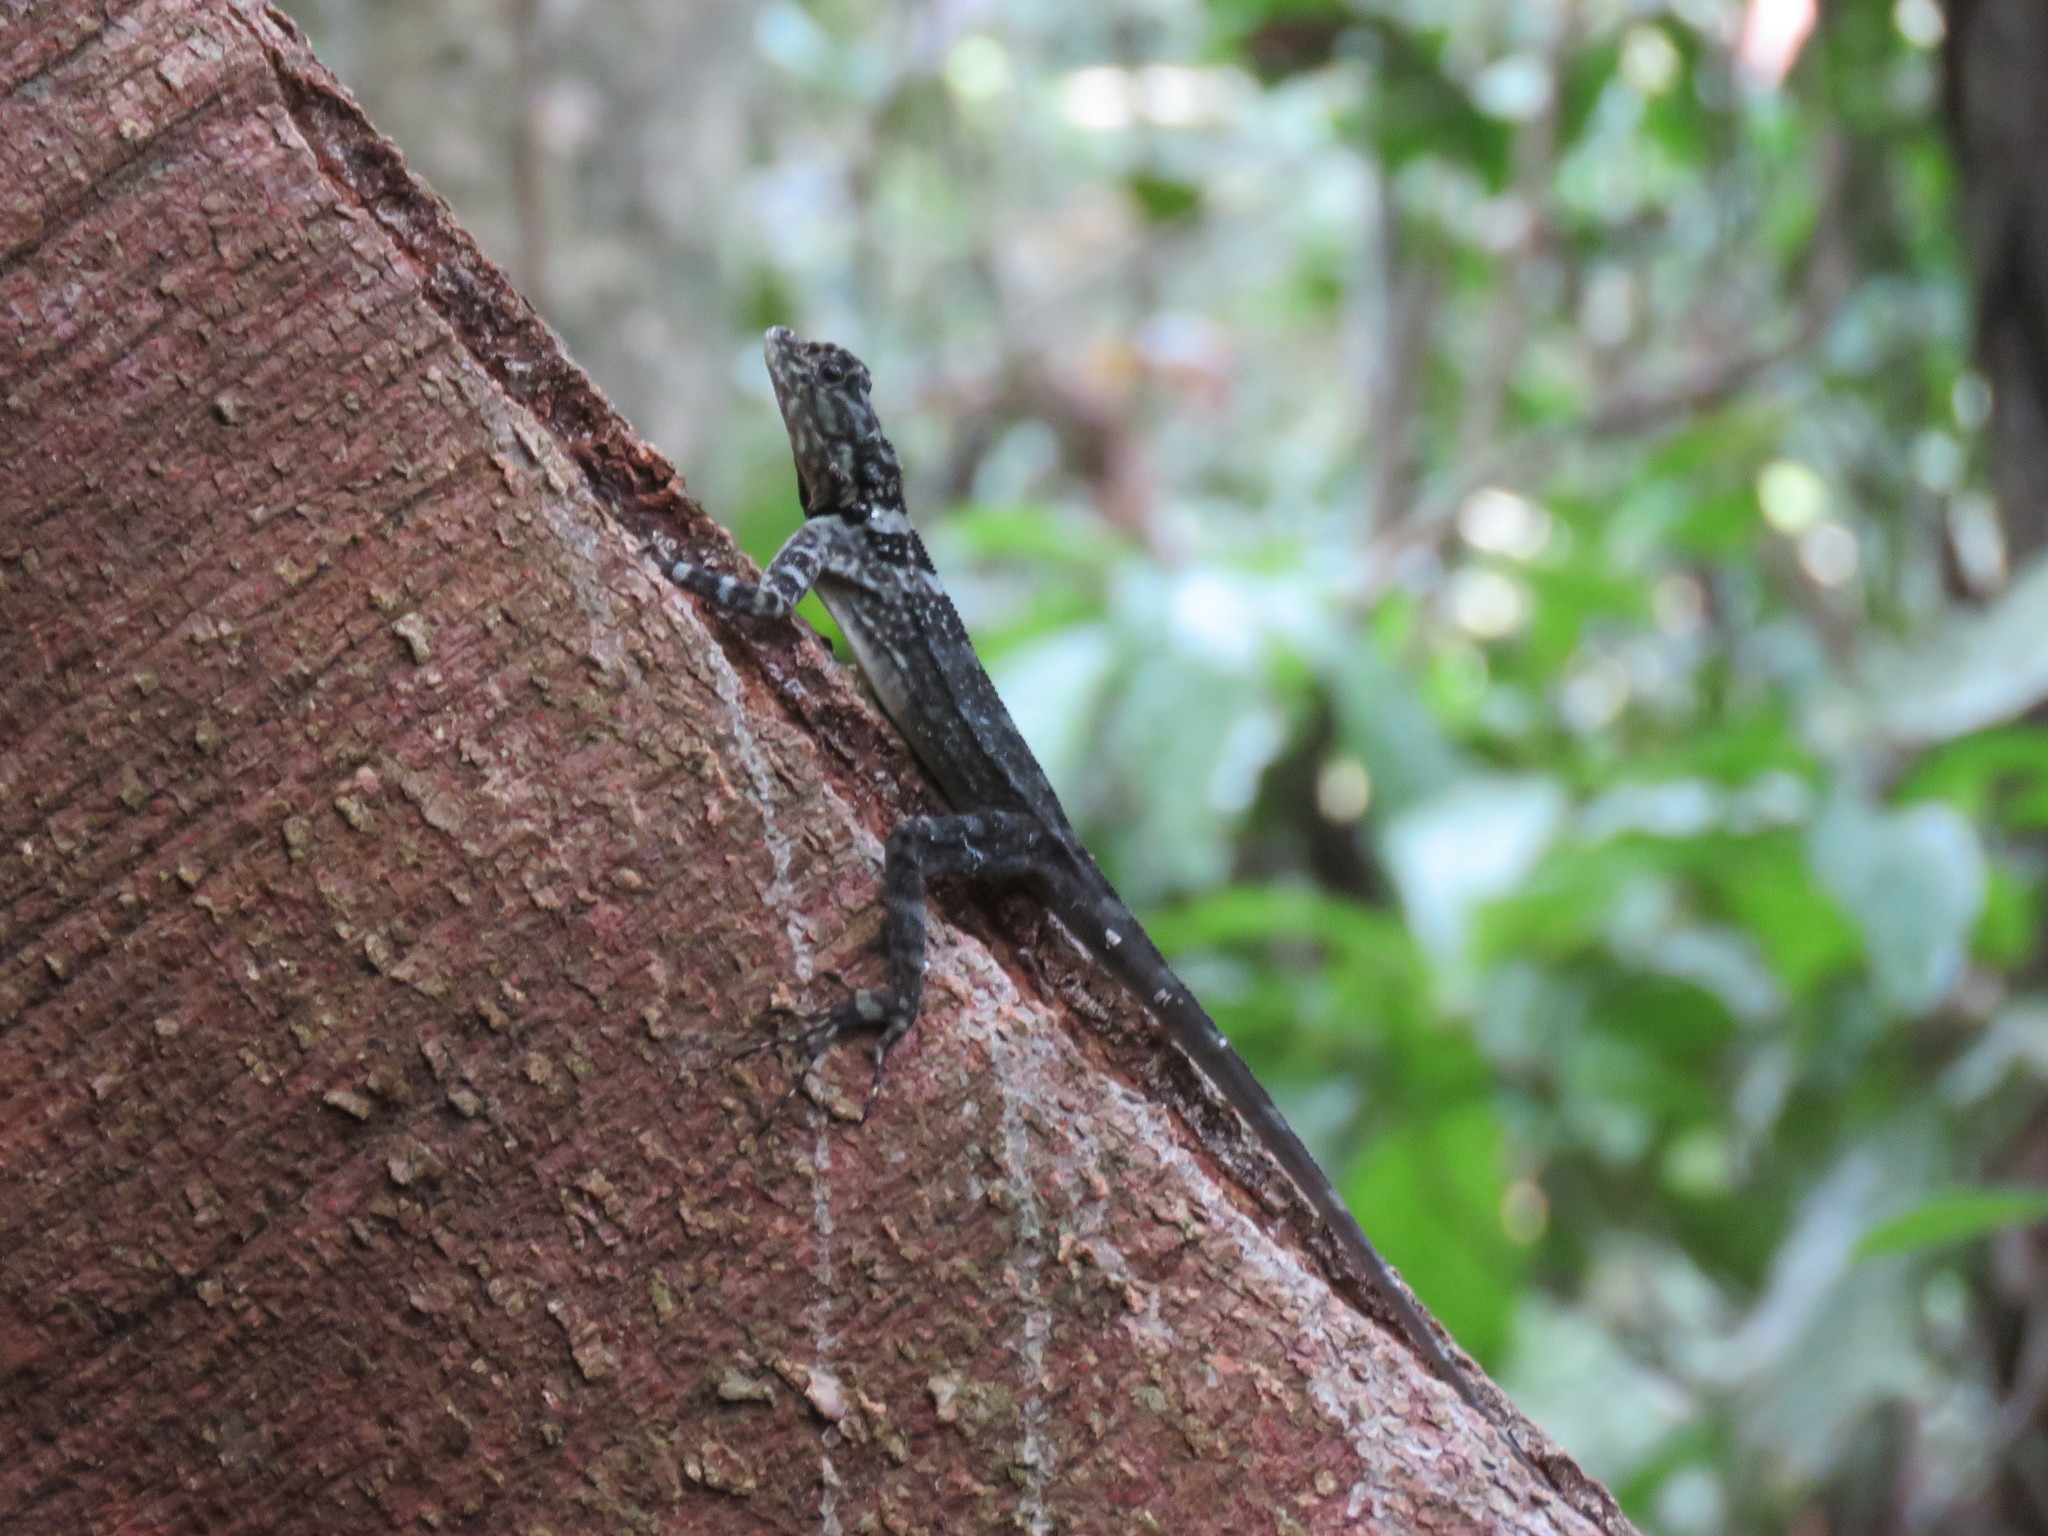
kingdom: Animalia
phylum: Chordata
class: Squamata
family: Tropiduridae
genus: Plica
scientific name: Plica plica
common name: Tree runner
